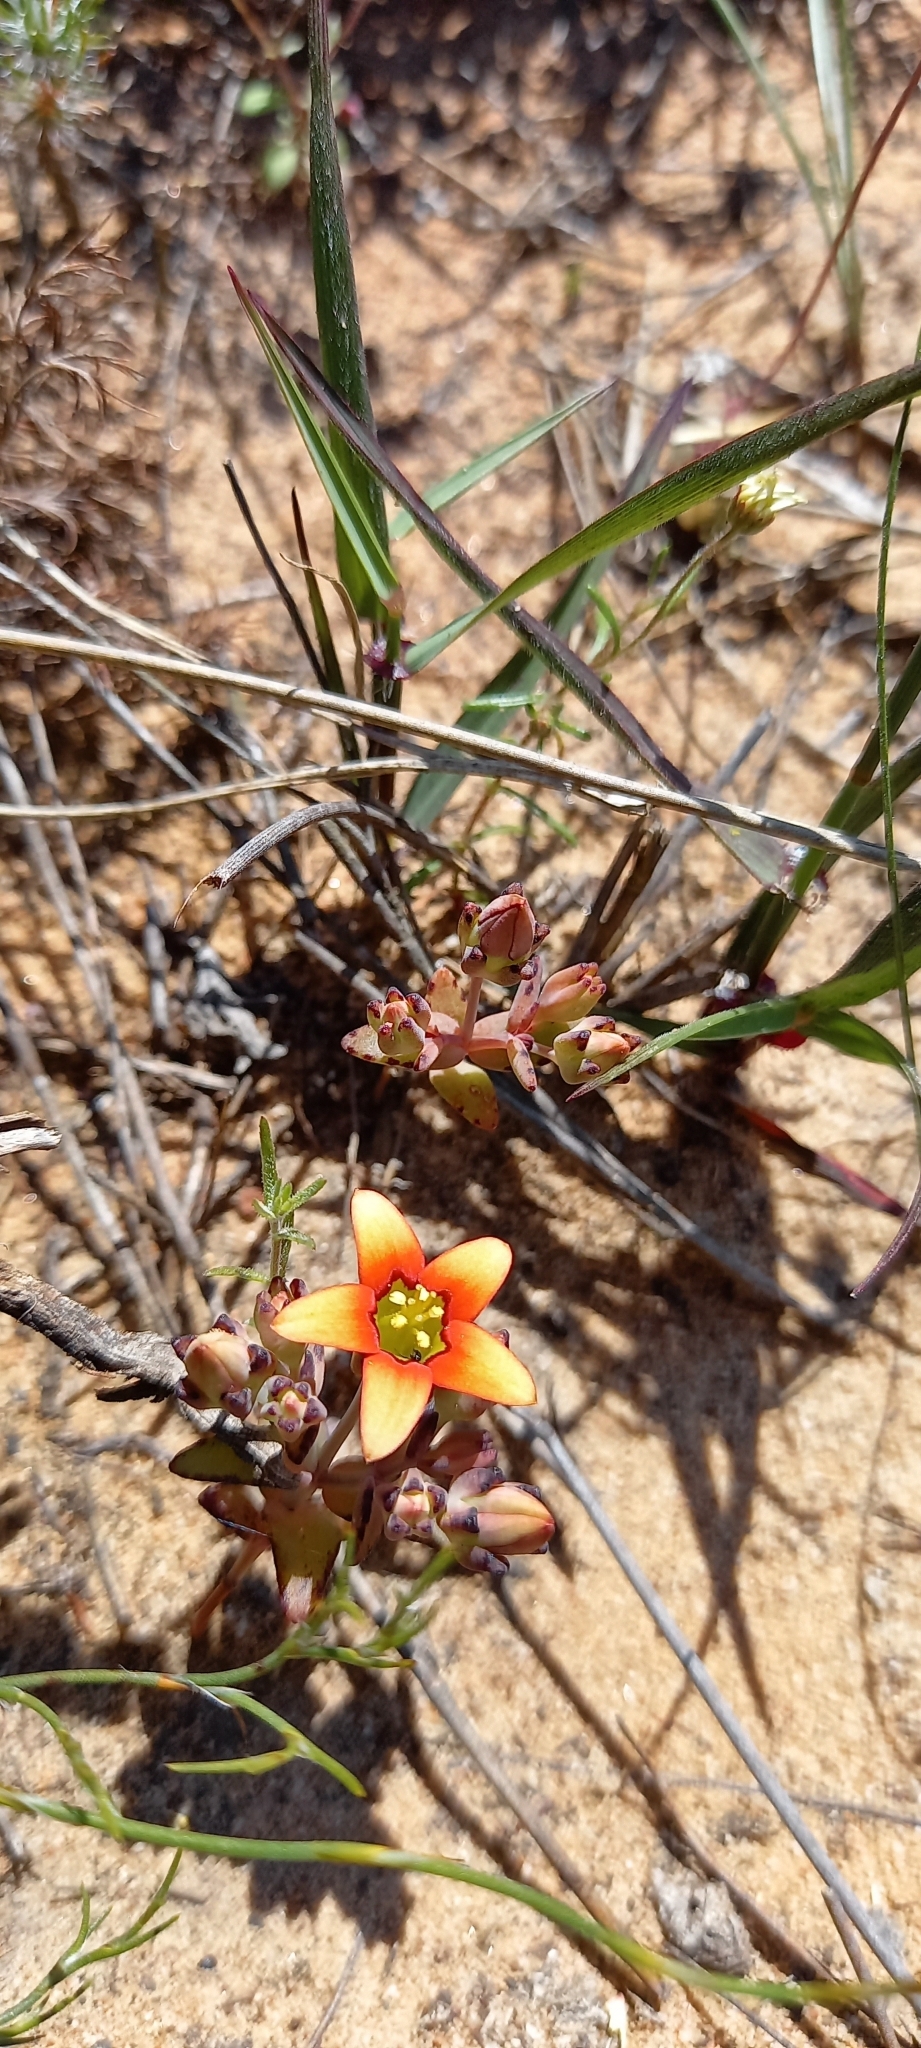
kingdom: Plantae
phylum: Tracheophyta
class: Magnoliopsida
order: Saxifragales
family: Crassulaceae
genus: Crassula
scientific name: Crassula dichotoma
